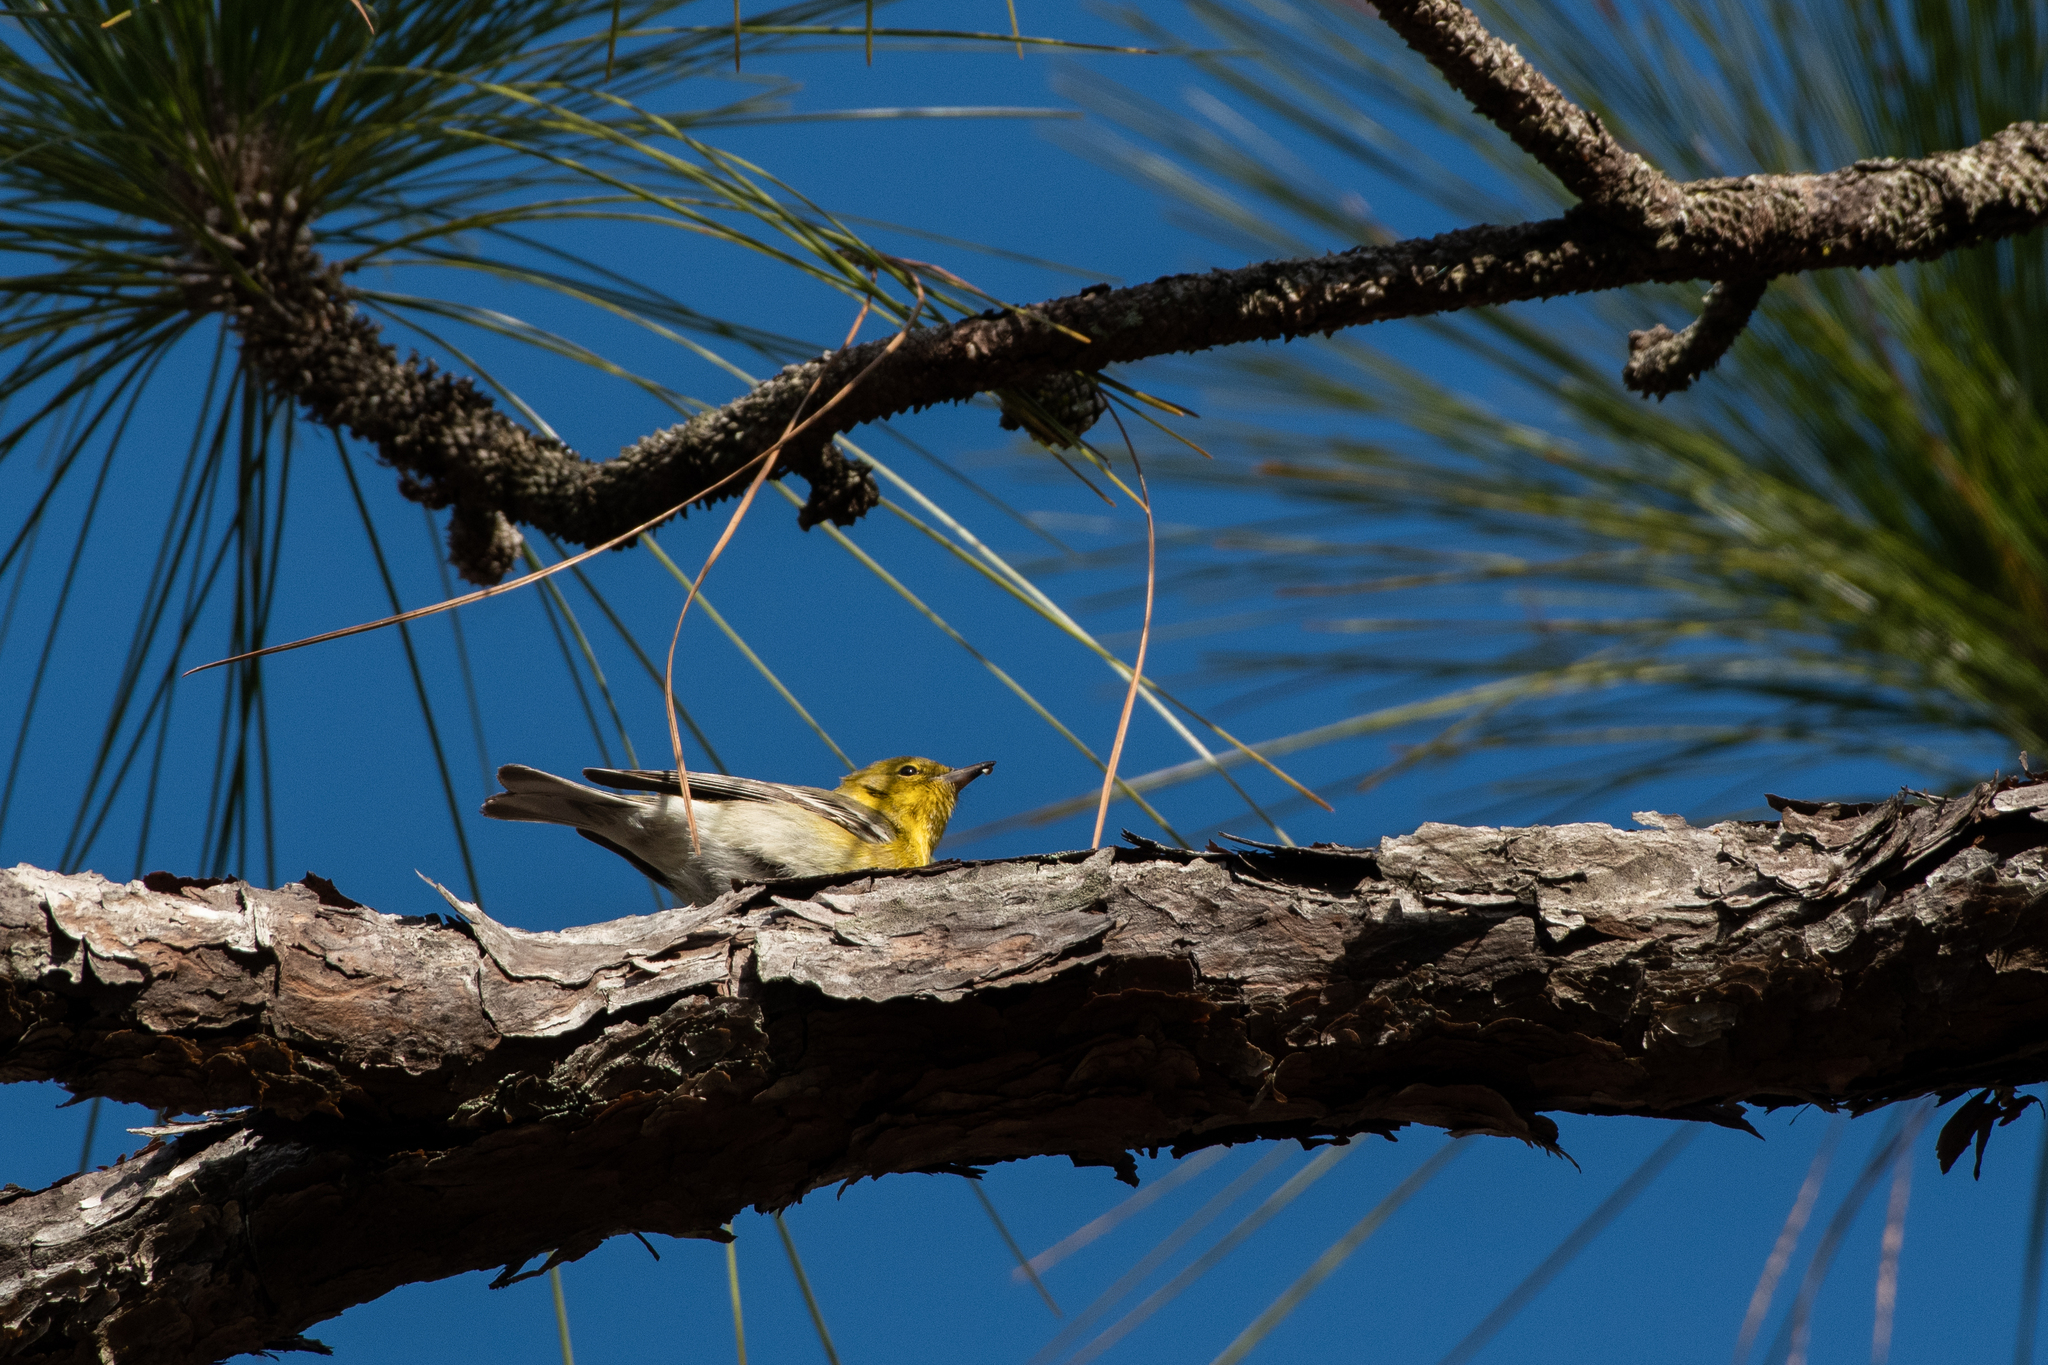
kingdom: Animalia
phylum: Chordata
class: Aves
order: Passeriformes
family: Parulidae
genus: Setophaga
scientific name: Setophaga pinus
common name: Pine warbler
